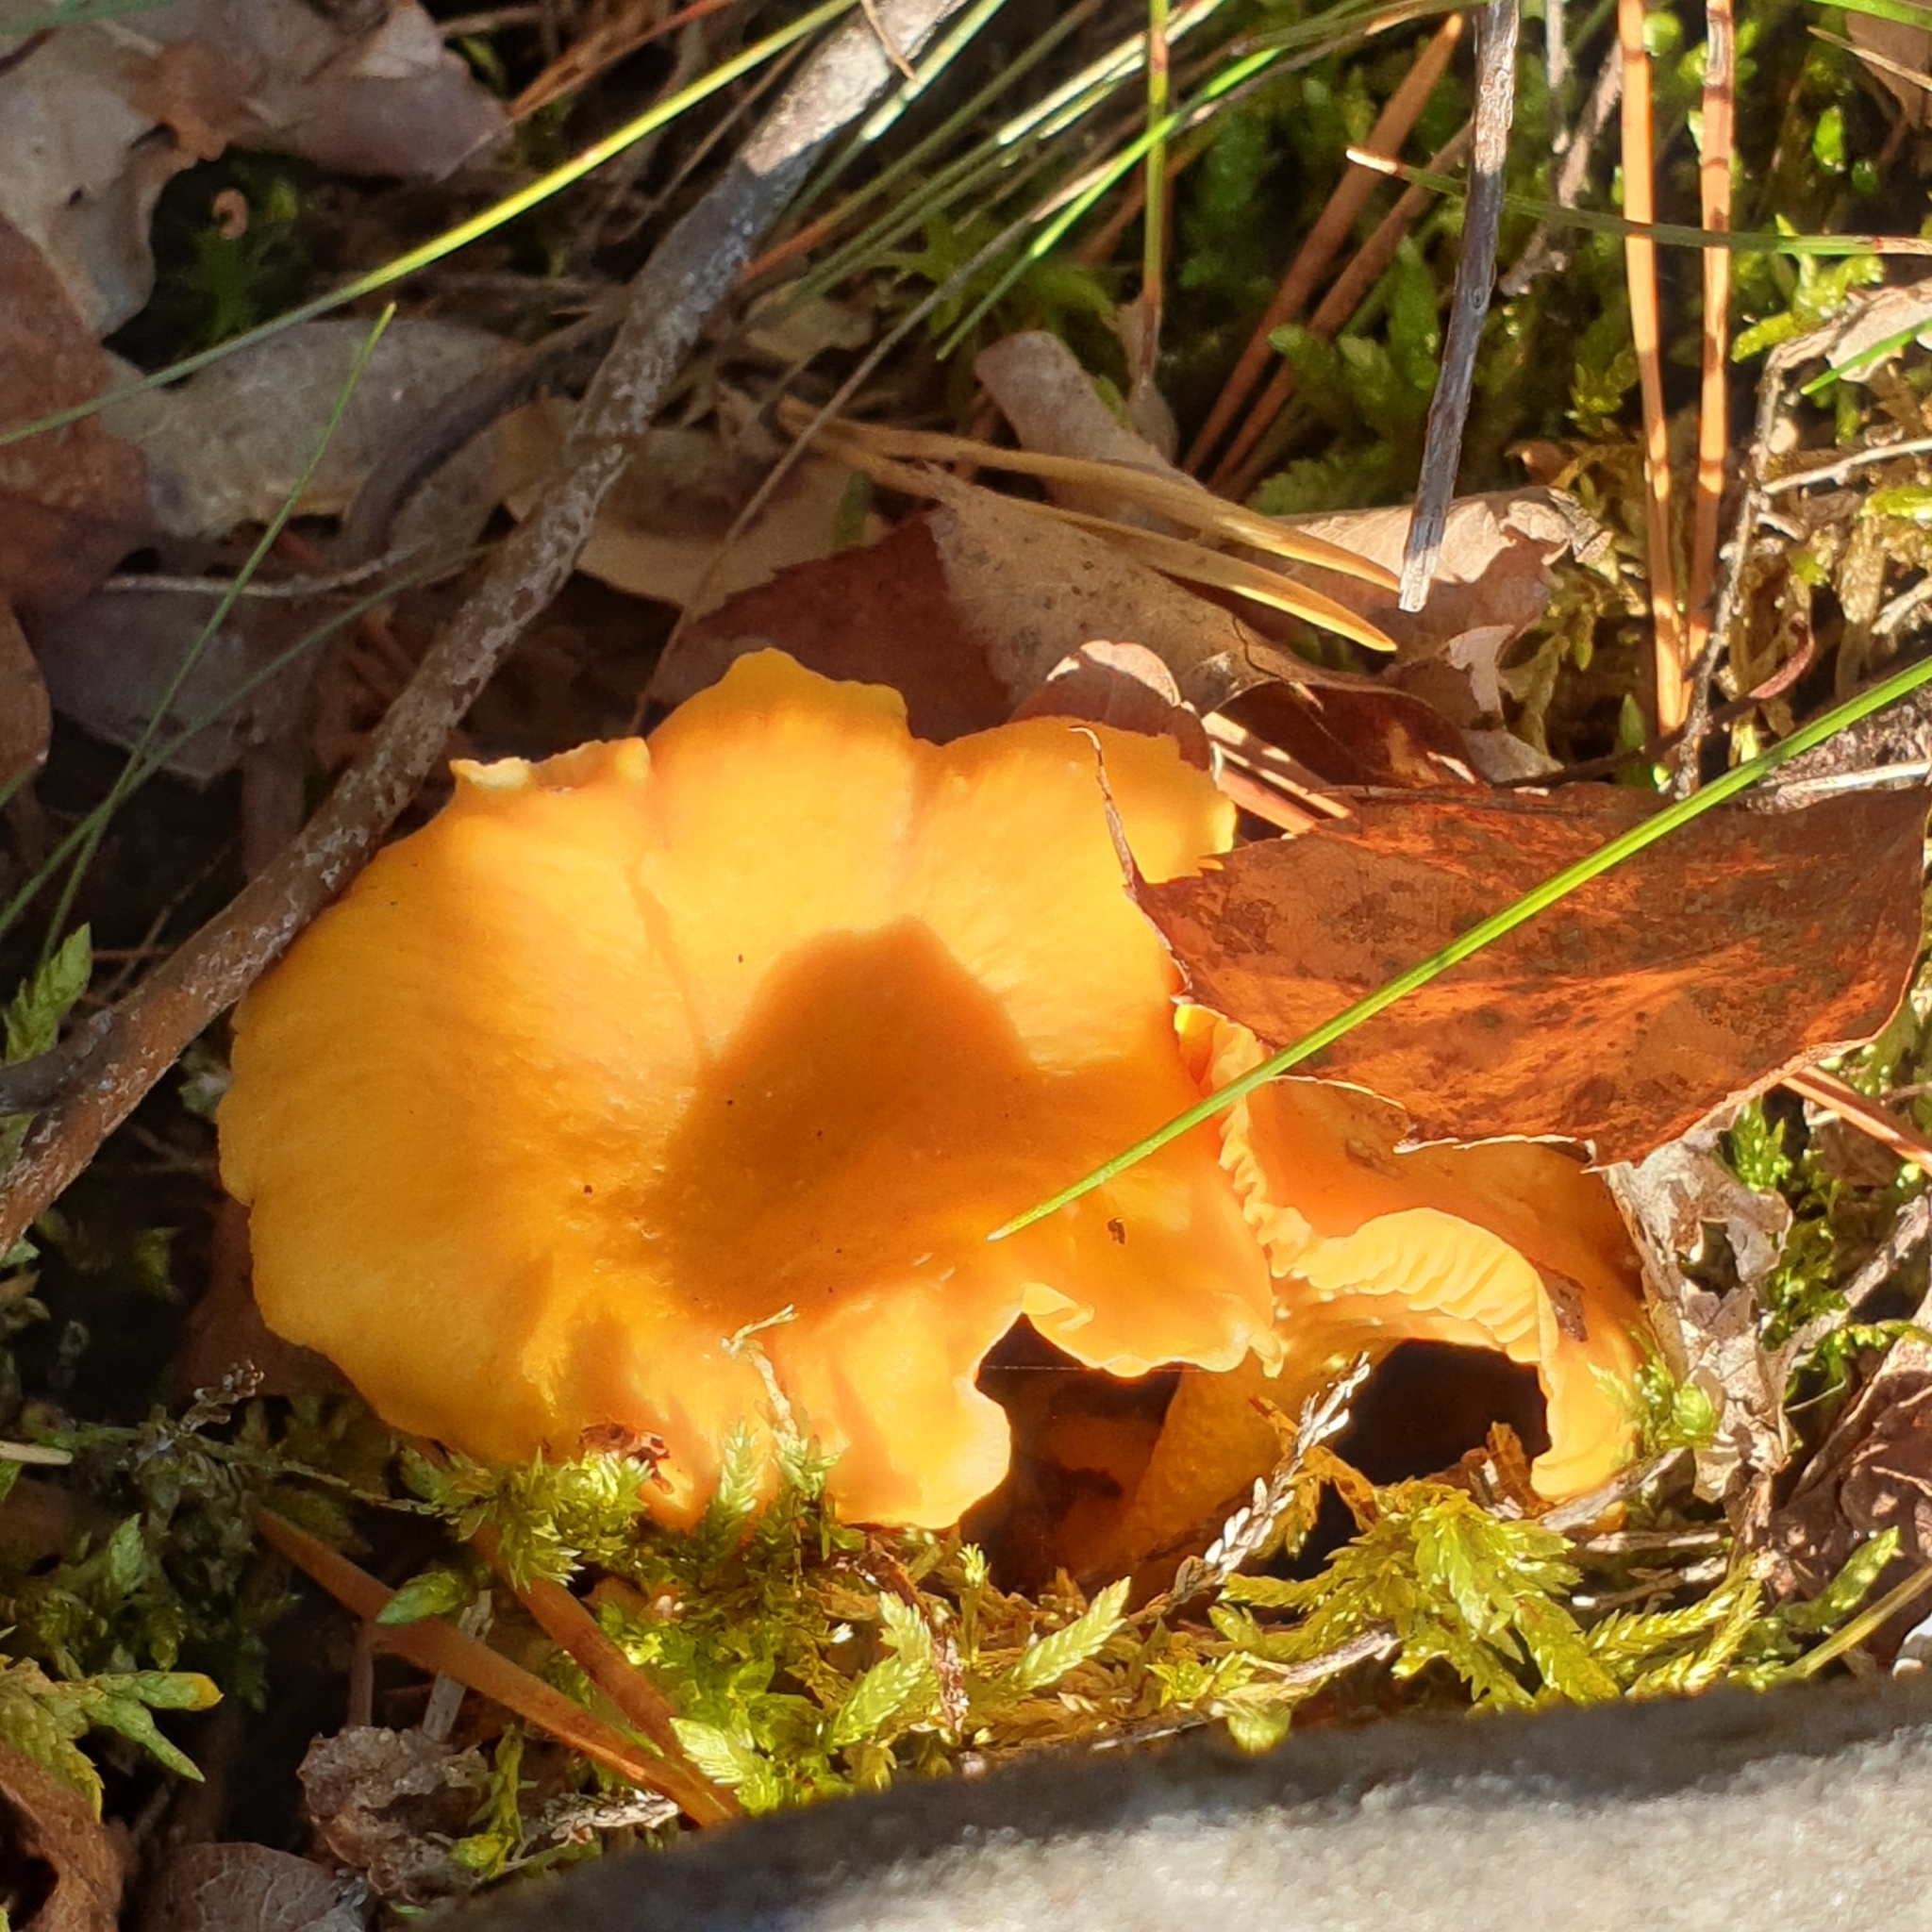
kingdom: Fungi
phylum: Basidiomycota
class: Agaricomycetes
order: Cantharellales
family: Hydnaceae
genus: Cantharellus
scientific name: Cantharellus cibarius
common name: Chanterelle
